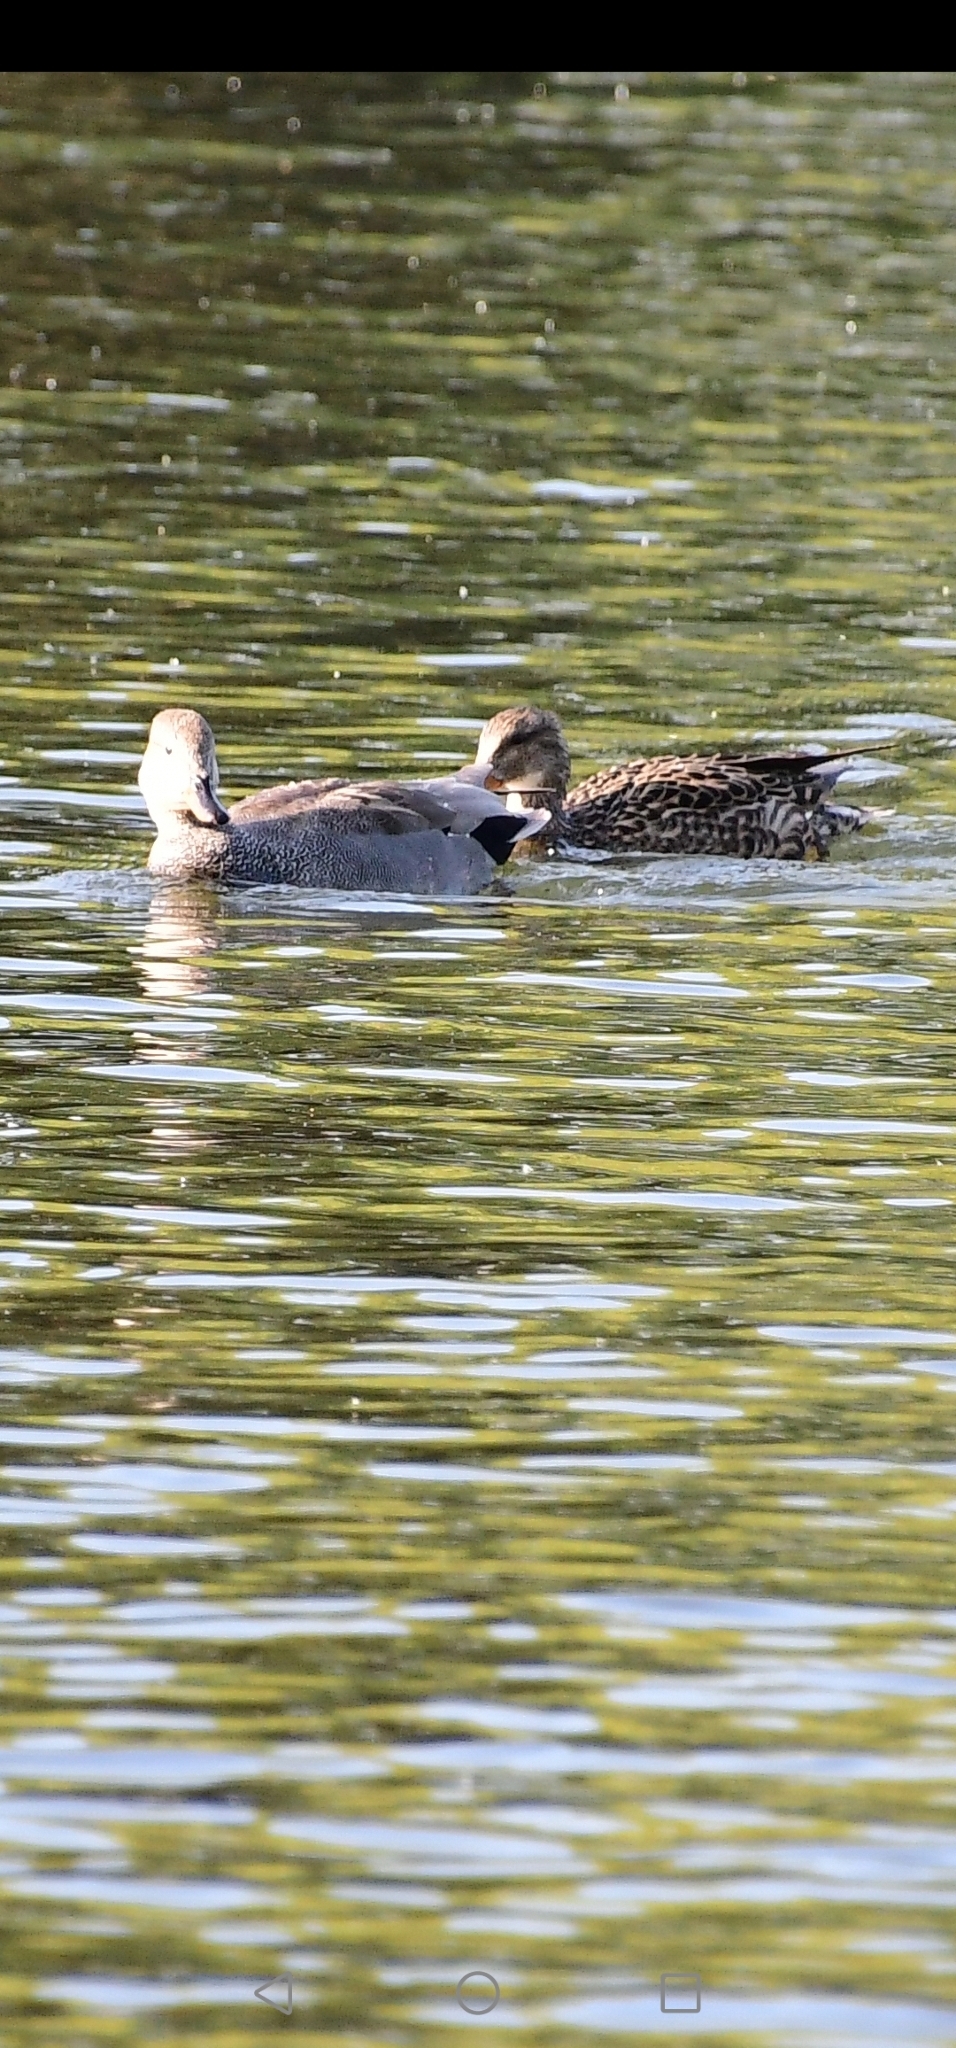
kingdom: Animalia
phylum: Chordata
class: Aves
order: Anseriformes
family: Anatidae
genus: Mareca
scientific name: Mareca strepera
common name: Gadwall
